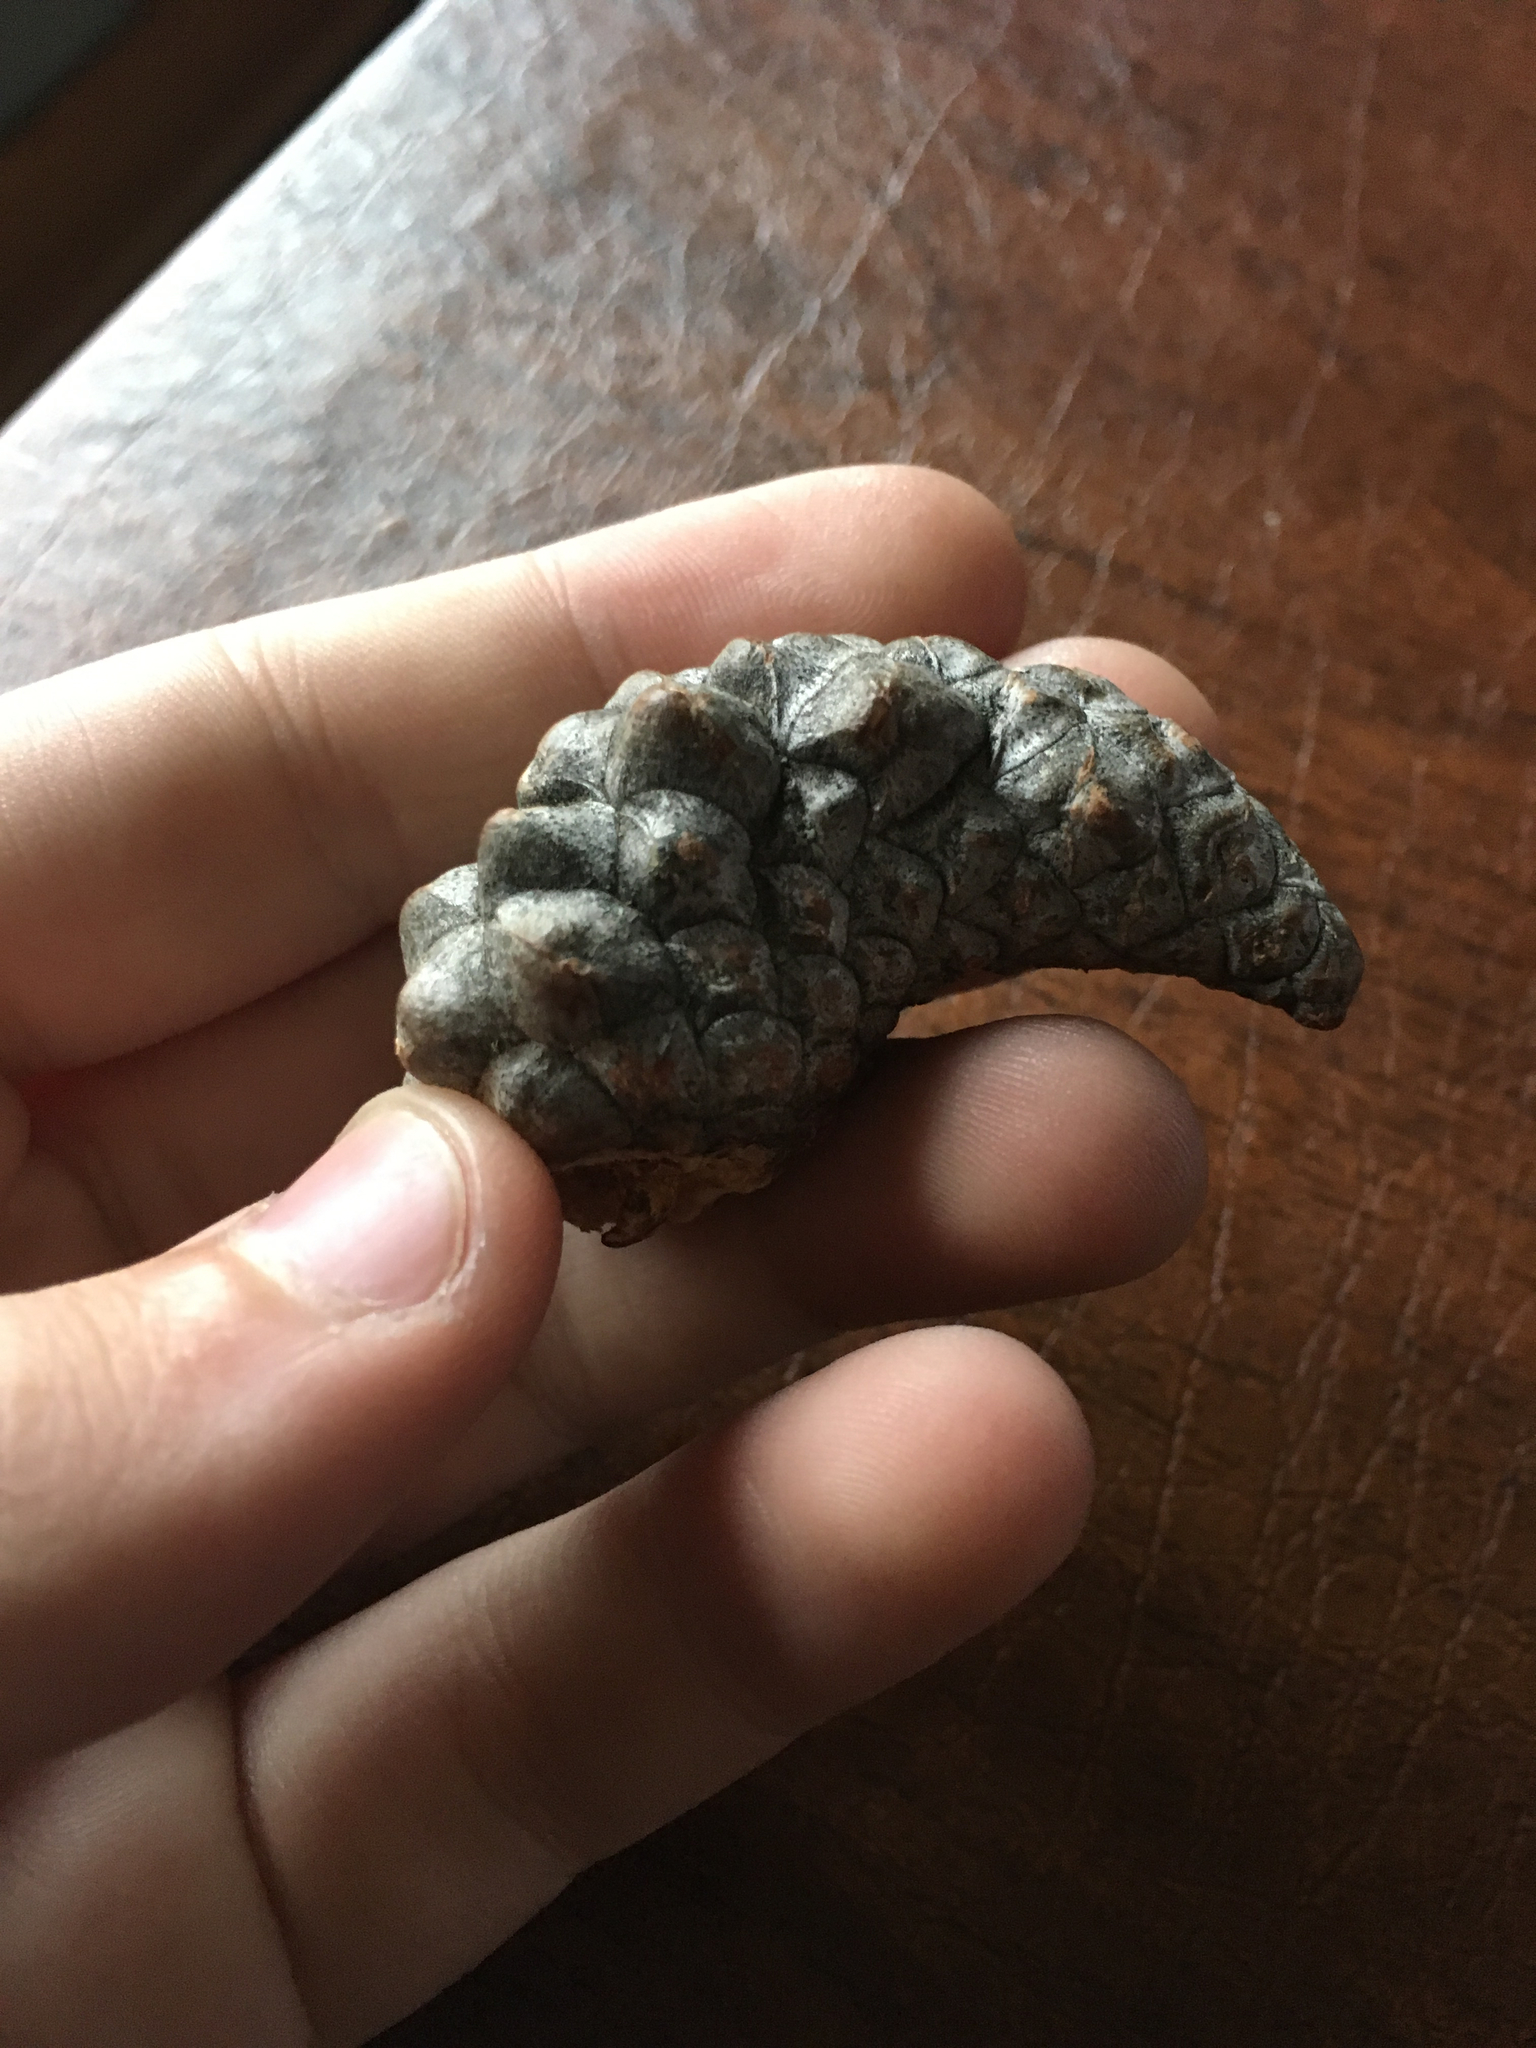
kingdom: Plantae
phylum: Tracheophyta
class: Pinopsida
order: Pinales
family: Pinaceae
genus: Pinus
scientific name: Pinus banksiana
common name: Jack pine
